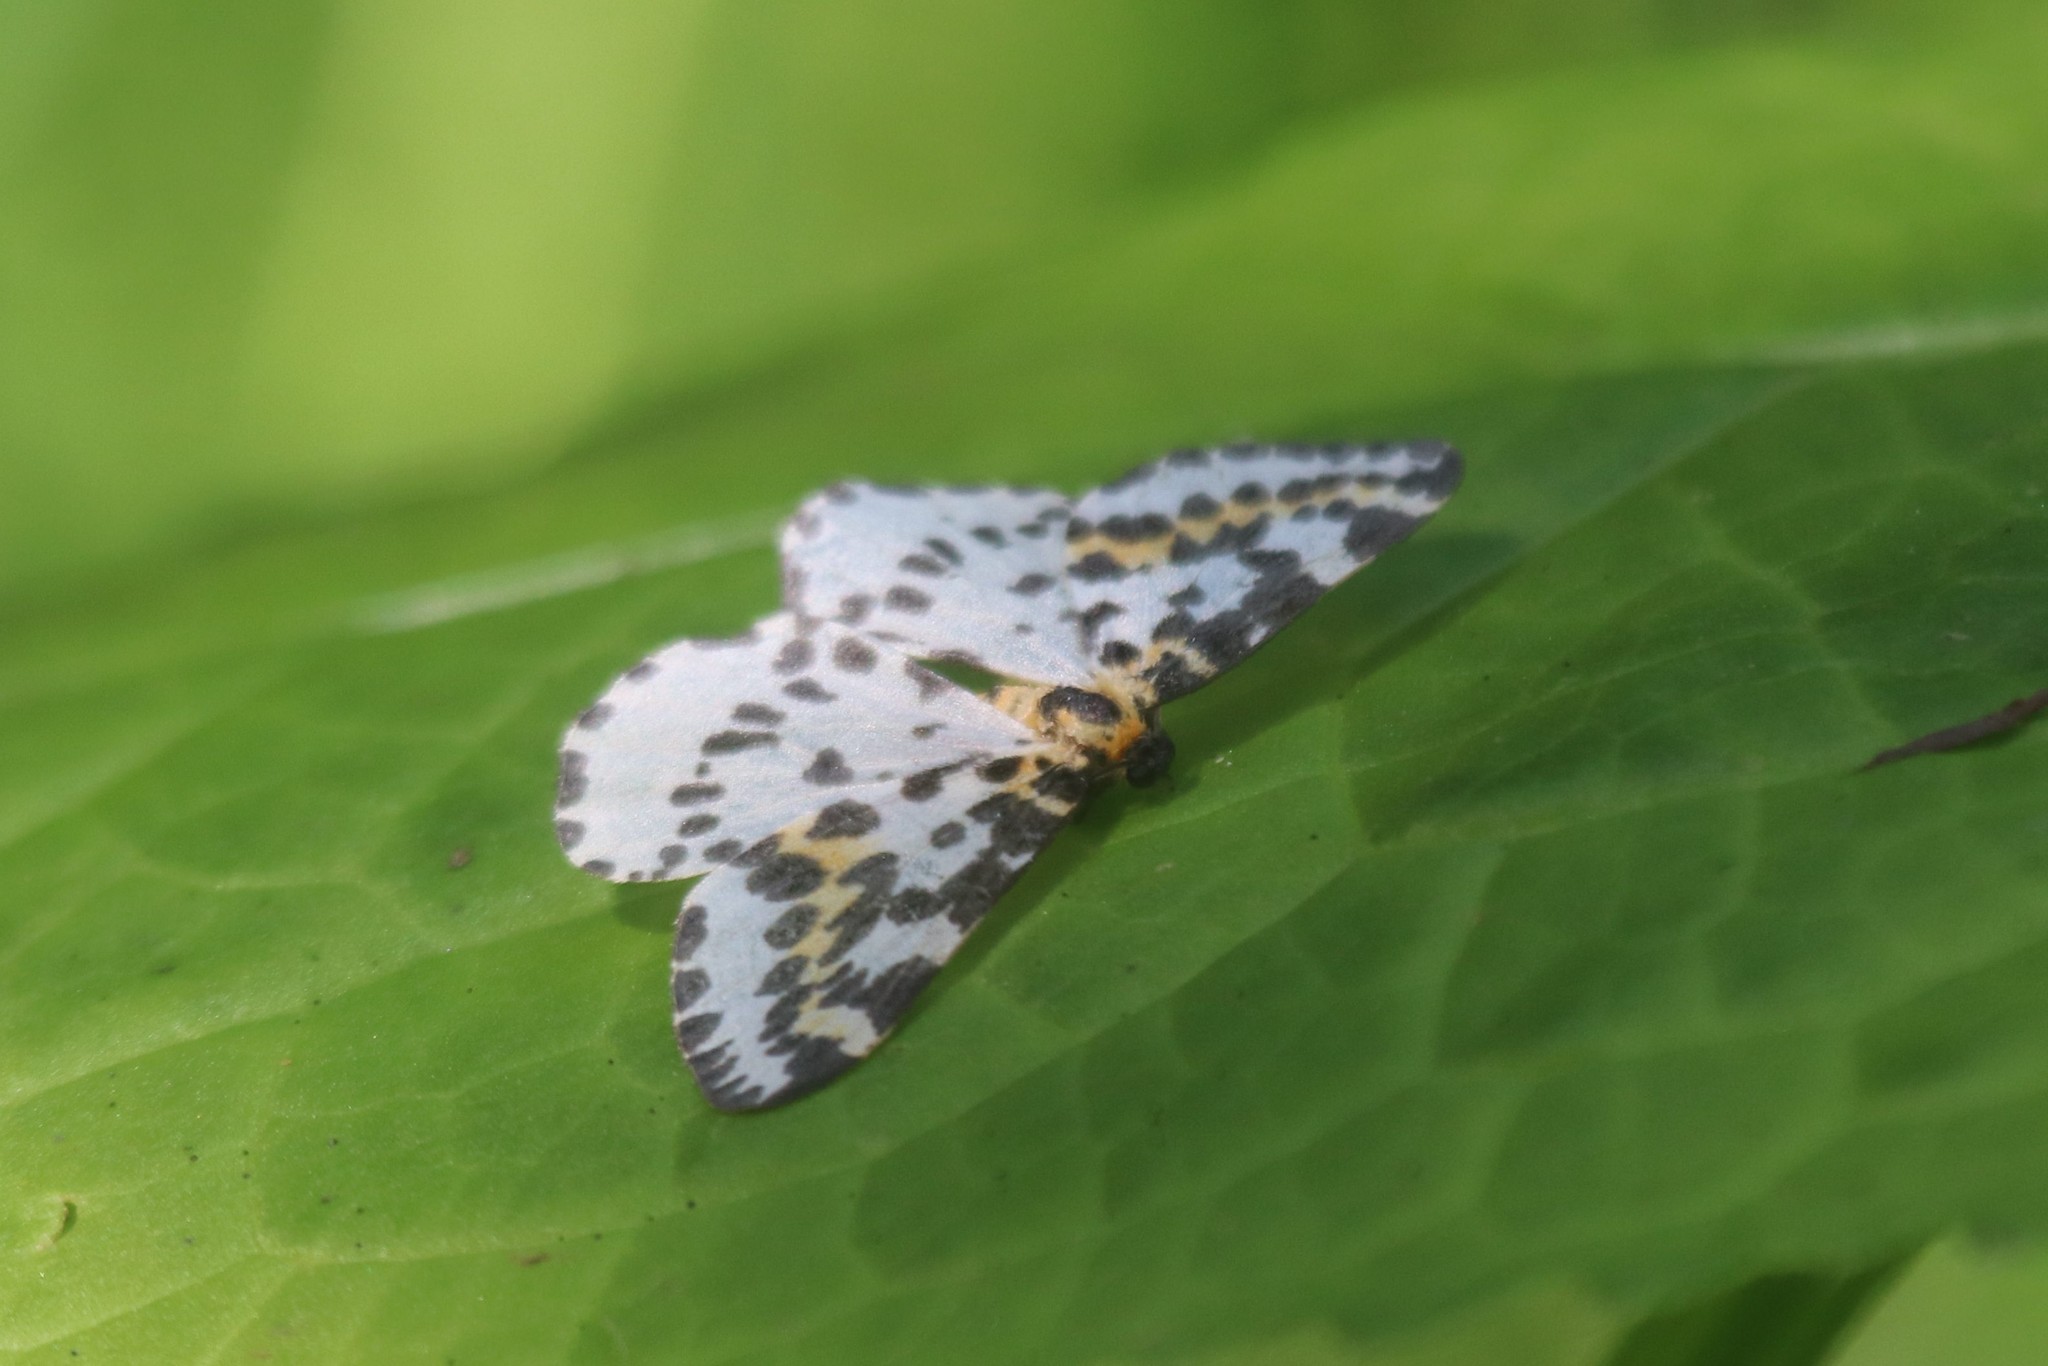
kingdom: Animalia
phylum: Arthropoda
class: Insecta
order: Lepidoptera
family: Geometridae
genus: Abraxas
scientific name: Abraxas grossulariata
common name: Magpie
